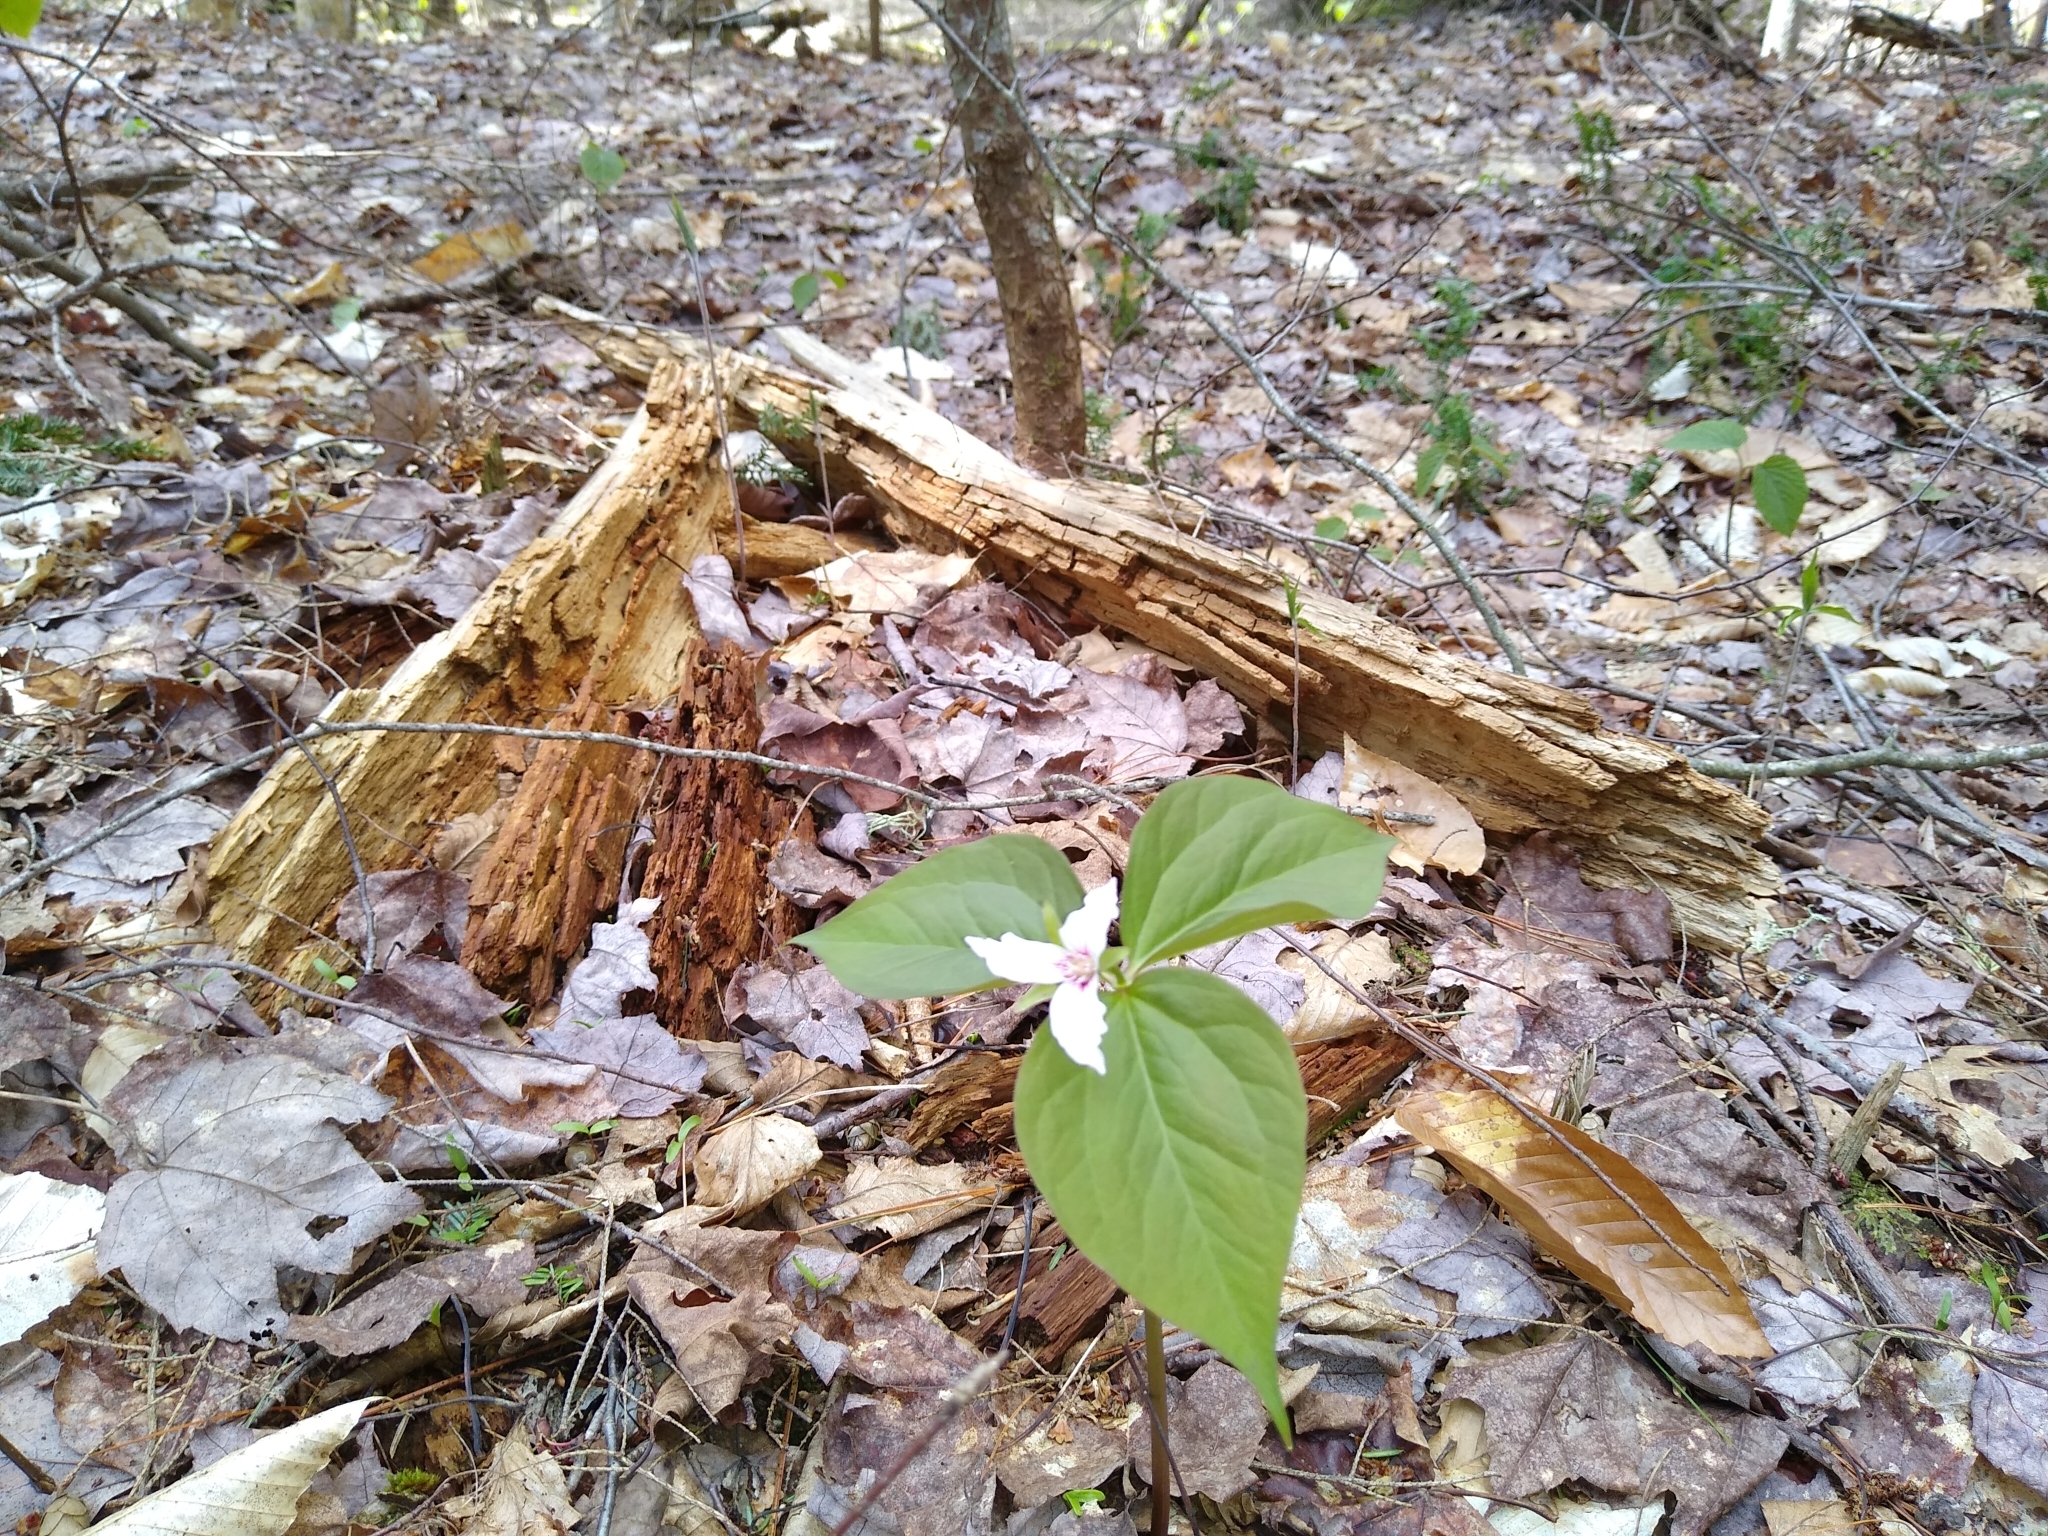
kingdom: Plantae
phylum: Tracheophyta
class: Liliopsida
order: Liliales
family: Melanthiaceae
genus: Trillium
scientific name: Trillium undulatum
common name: Paint trillium
